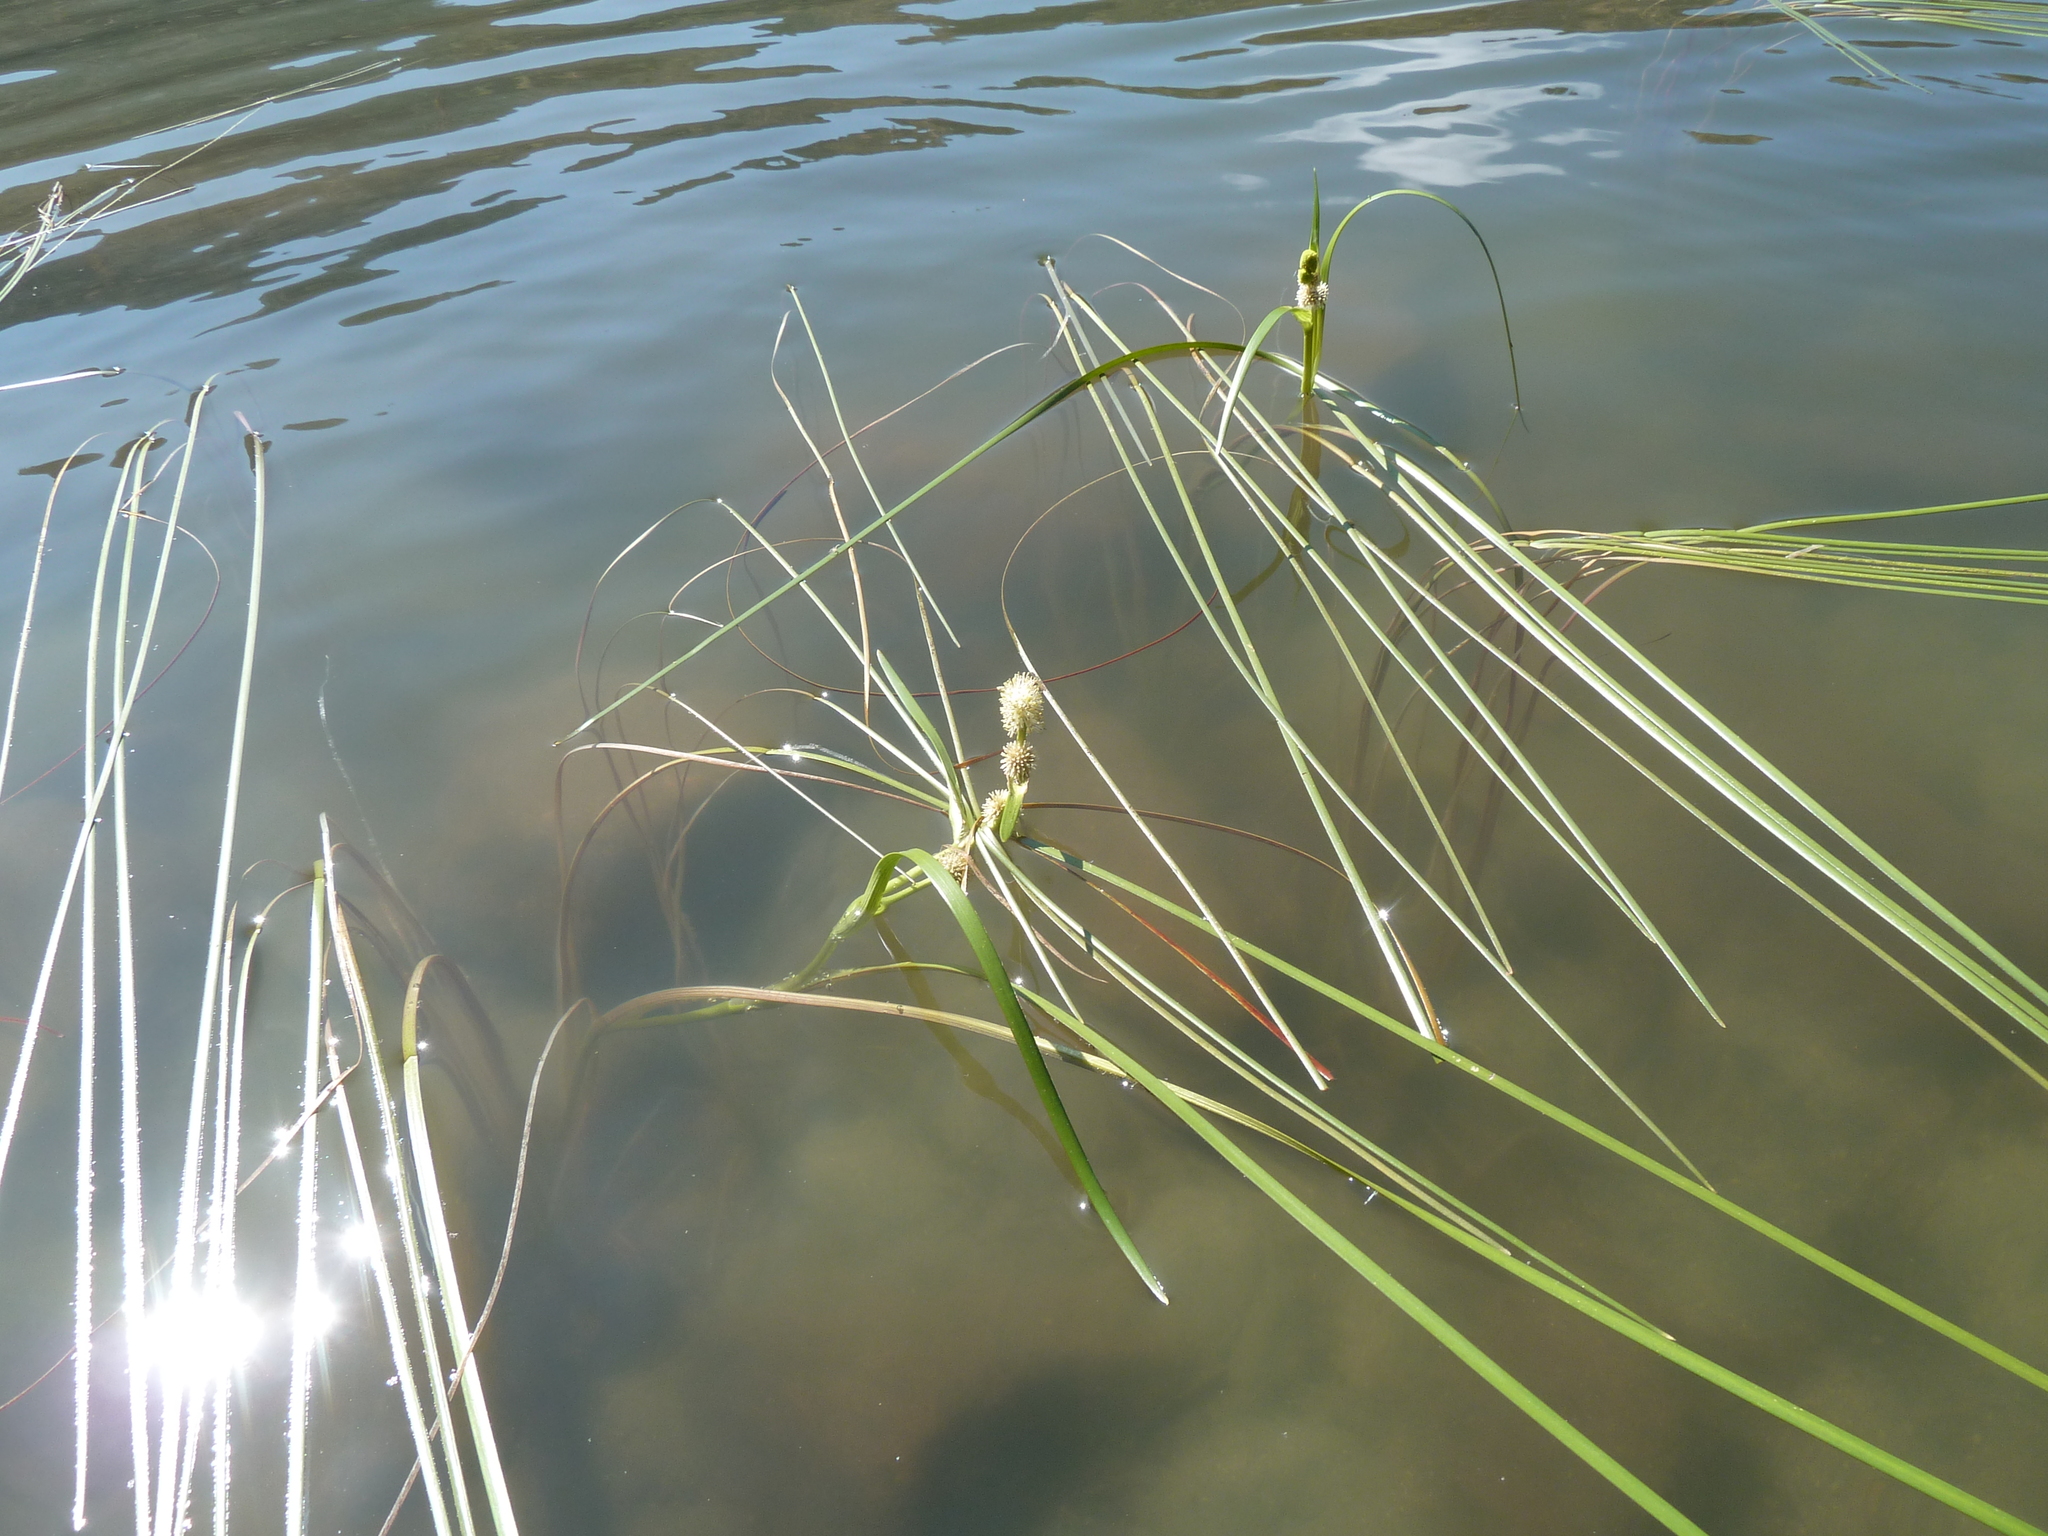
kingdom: Plantae
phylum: Tracheophyta
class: Liliopsida
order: Poales
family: Typhaceae
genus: Sparganium
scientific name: Sparganium angustifolium
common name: Floating bur-reed
